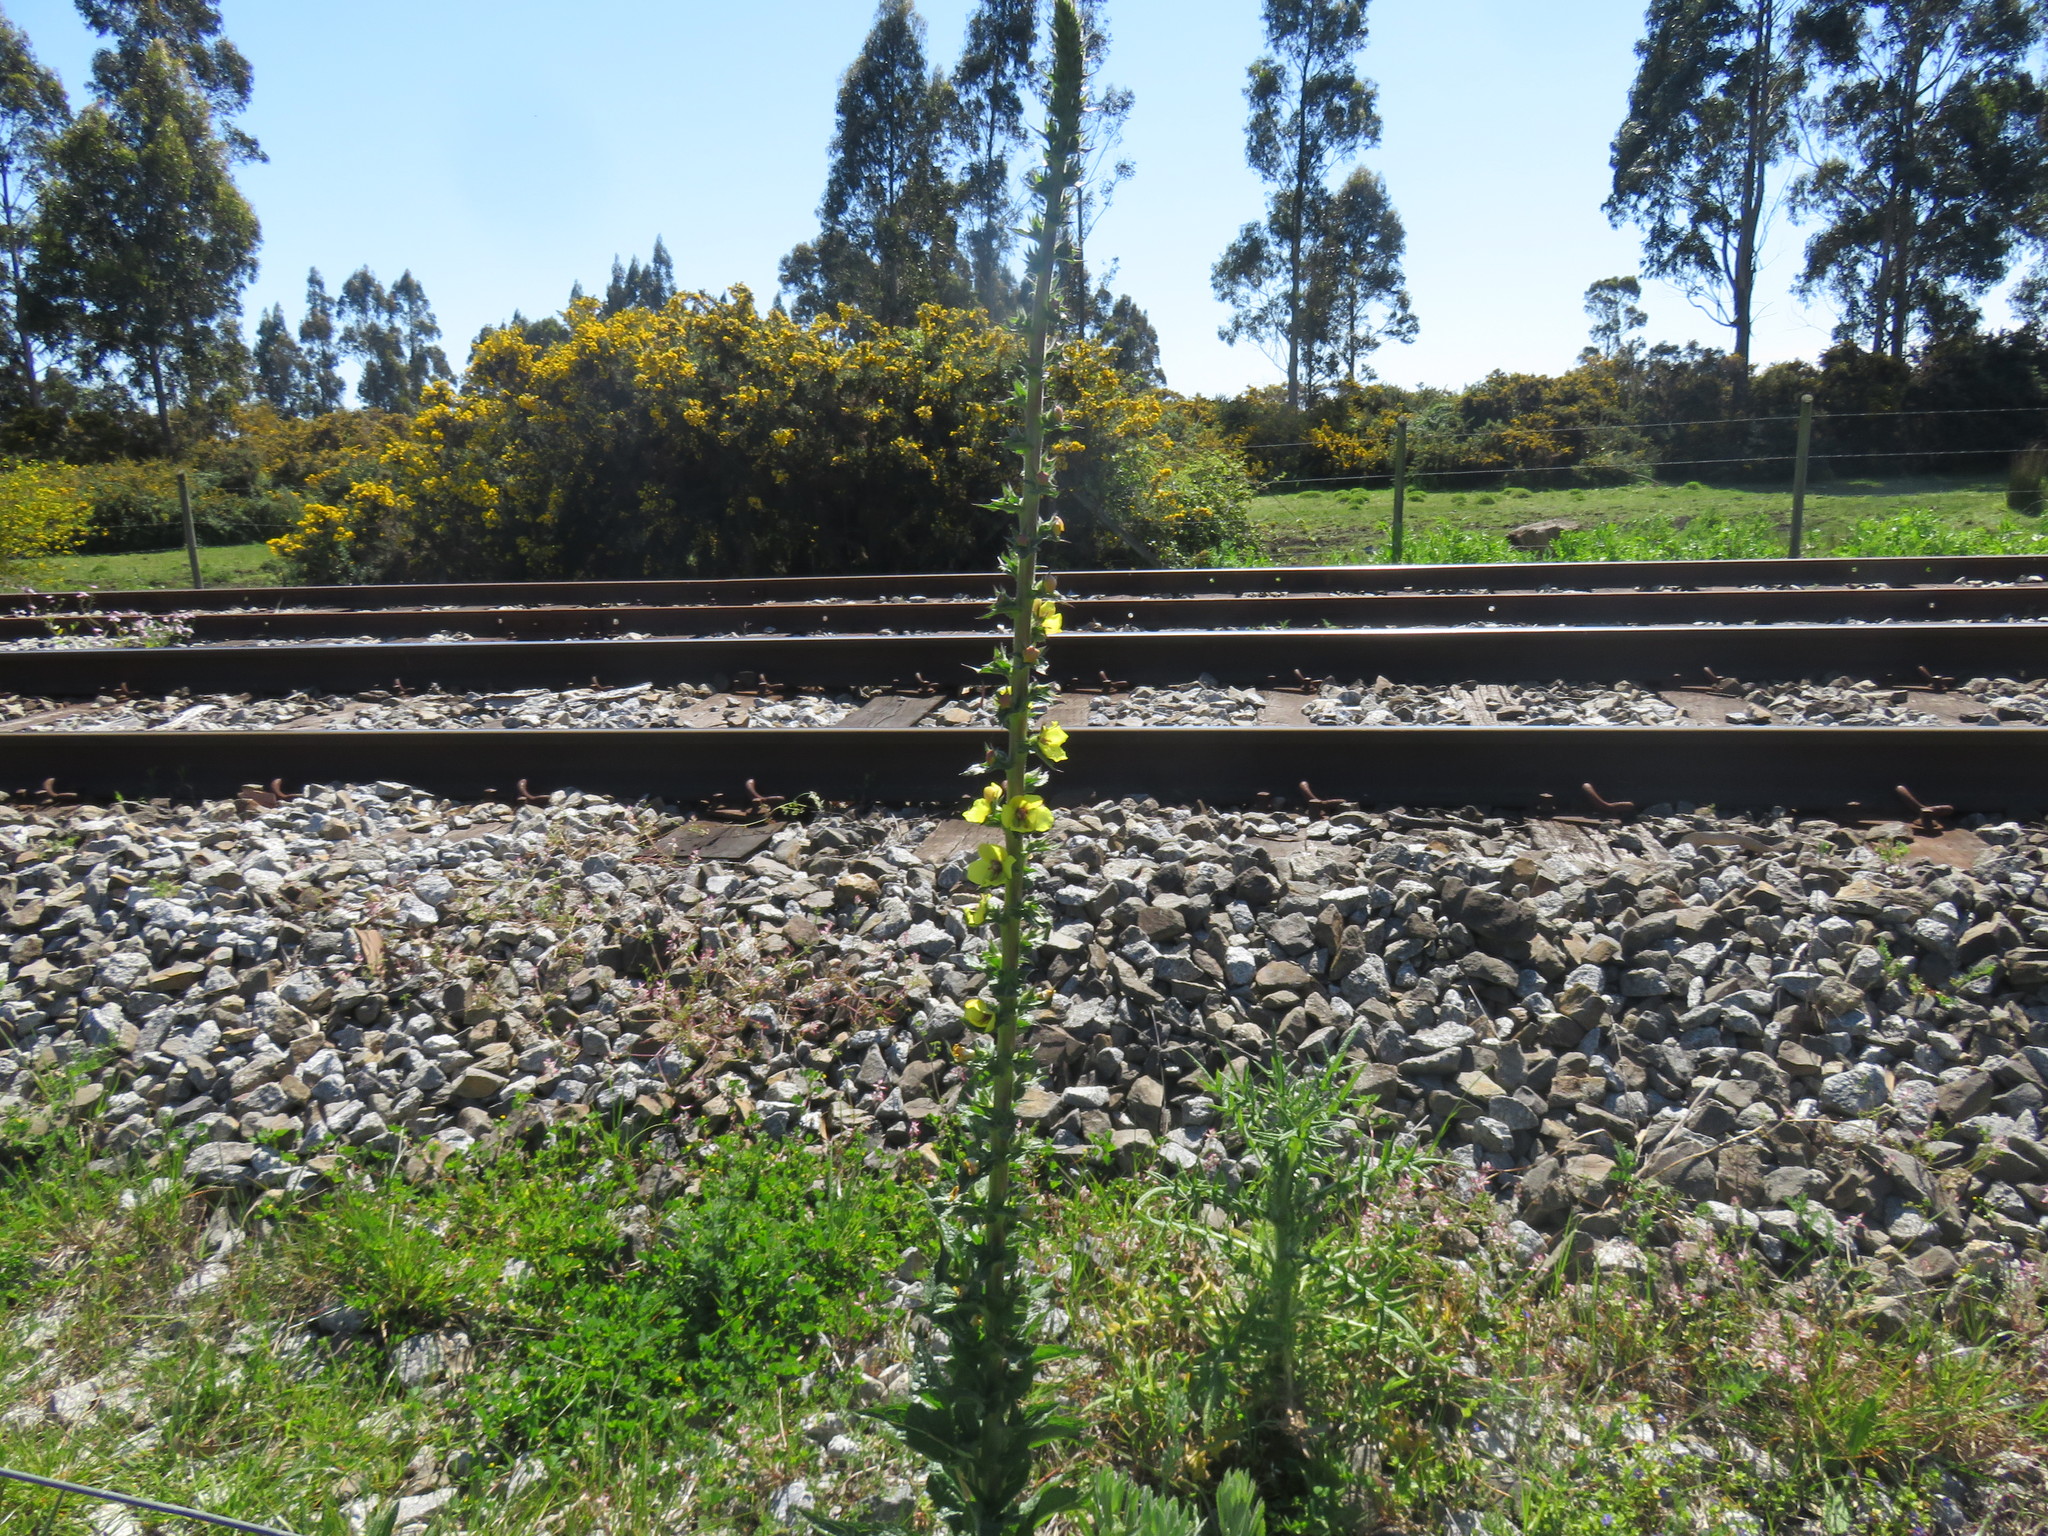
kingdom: Plantae
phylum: Tracheophyta
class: Magnoliopsida
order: Lamiales
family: Scrophulariaceae
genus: Verbascum
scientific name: Verbascum virgatum
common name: Twiggy mullein
